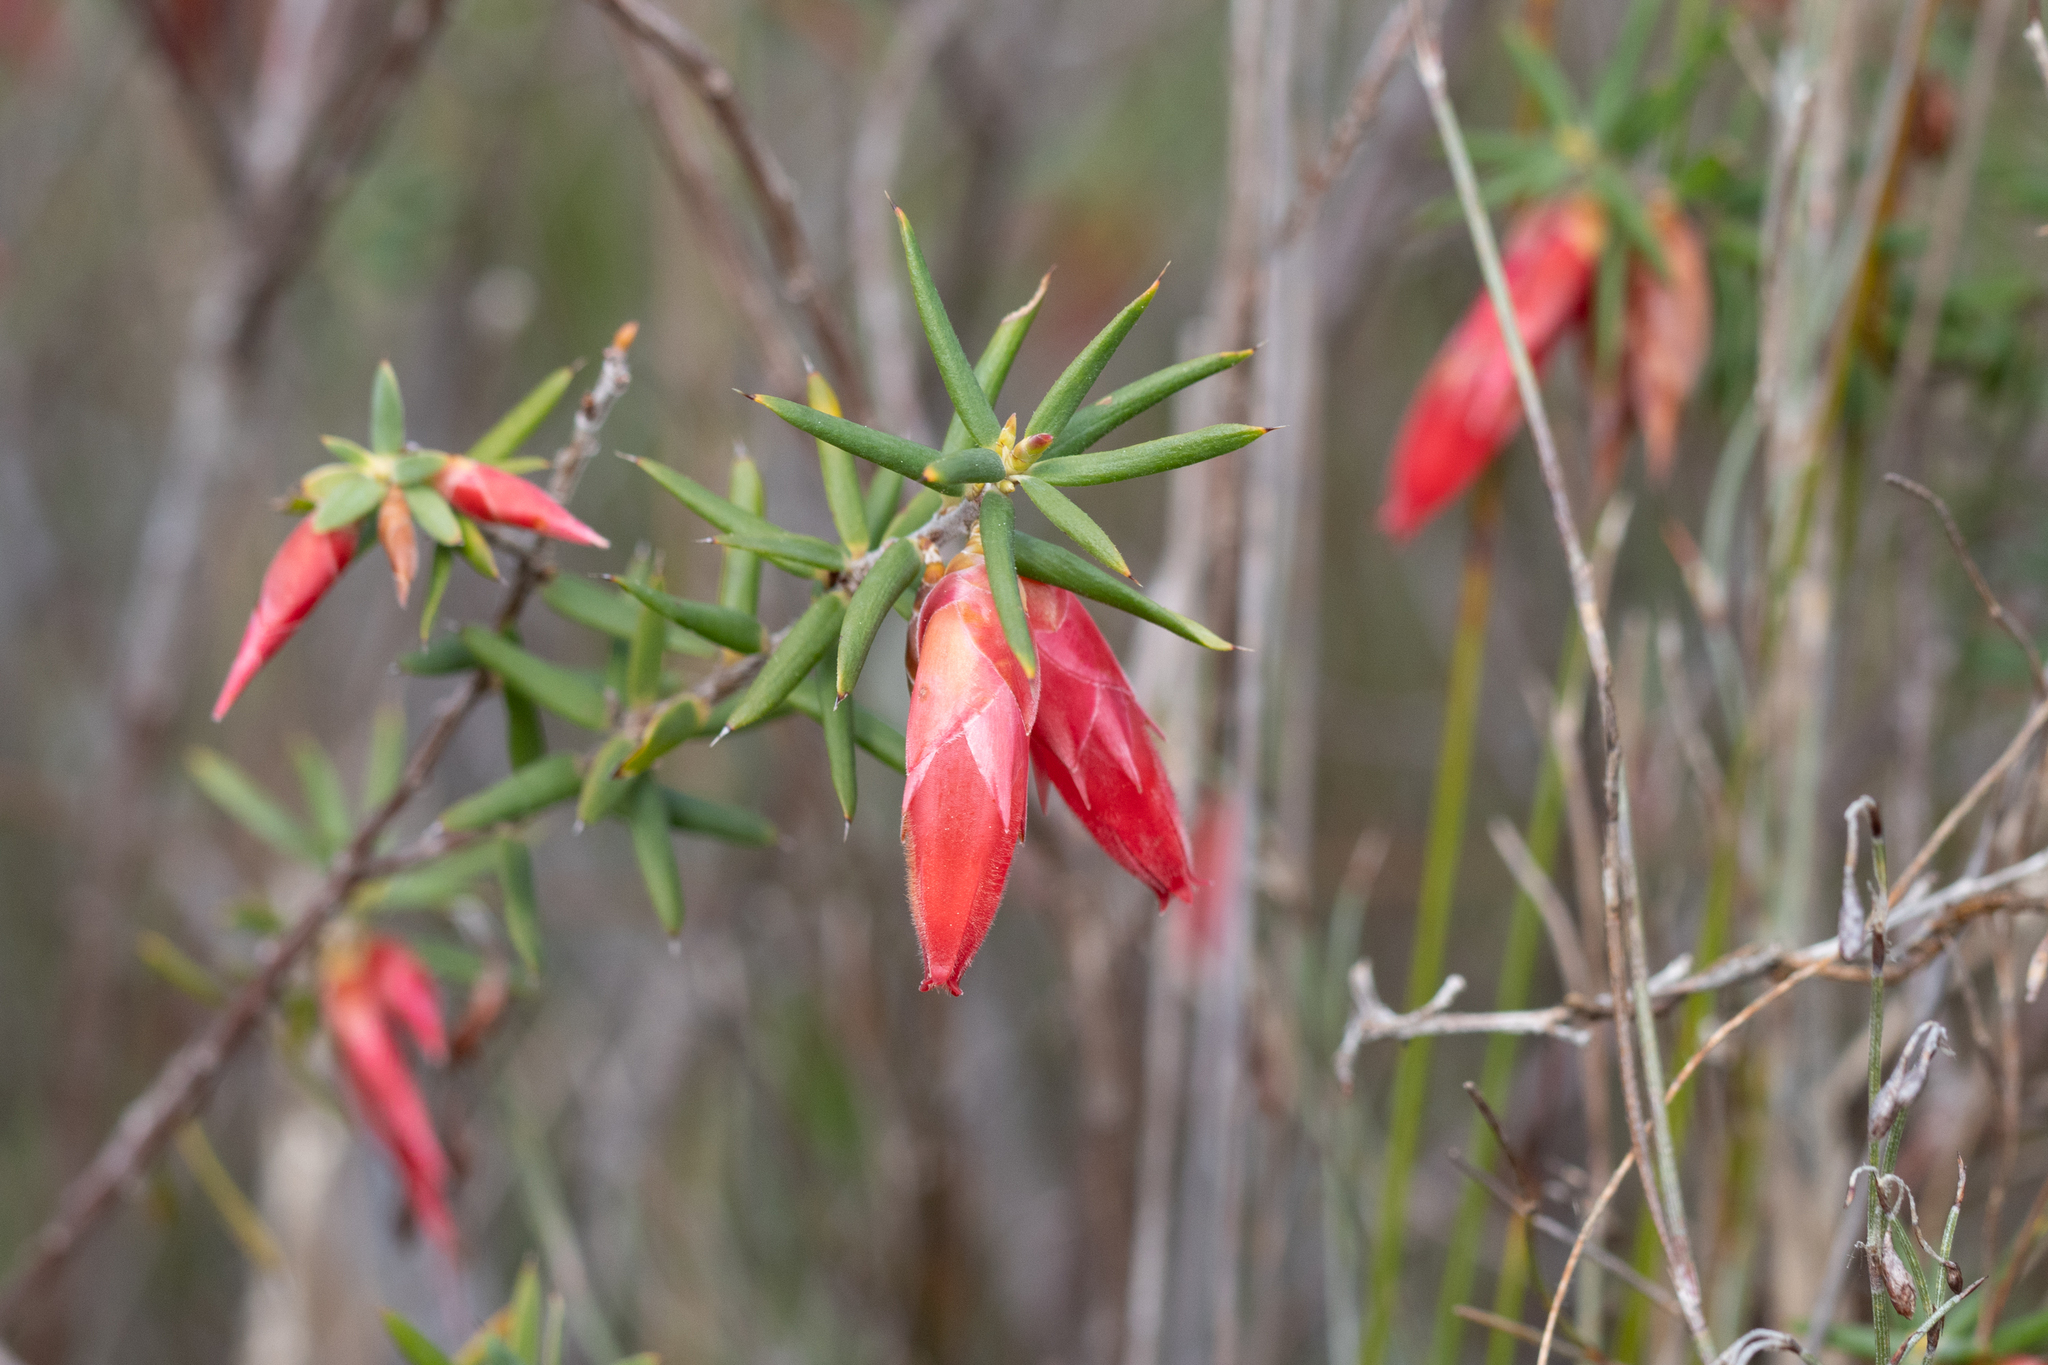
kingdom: Plantae
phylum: Tracheophyta
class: Magnoliopsida
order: Ericales
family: Ericaceae
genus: Stenanthera
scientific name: Stenanthera conostephioides
